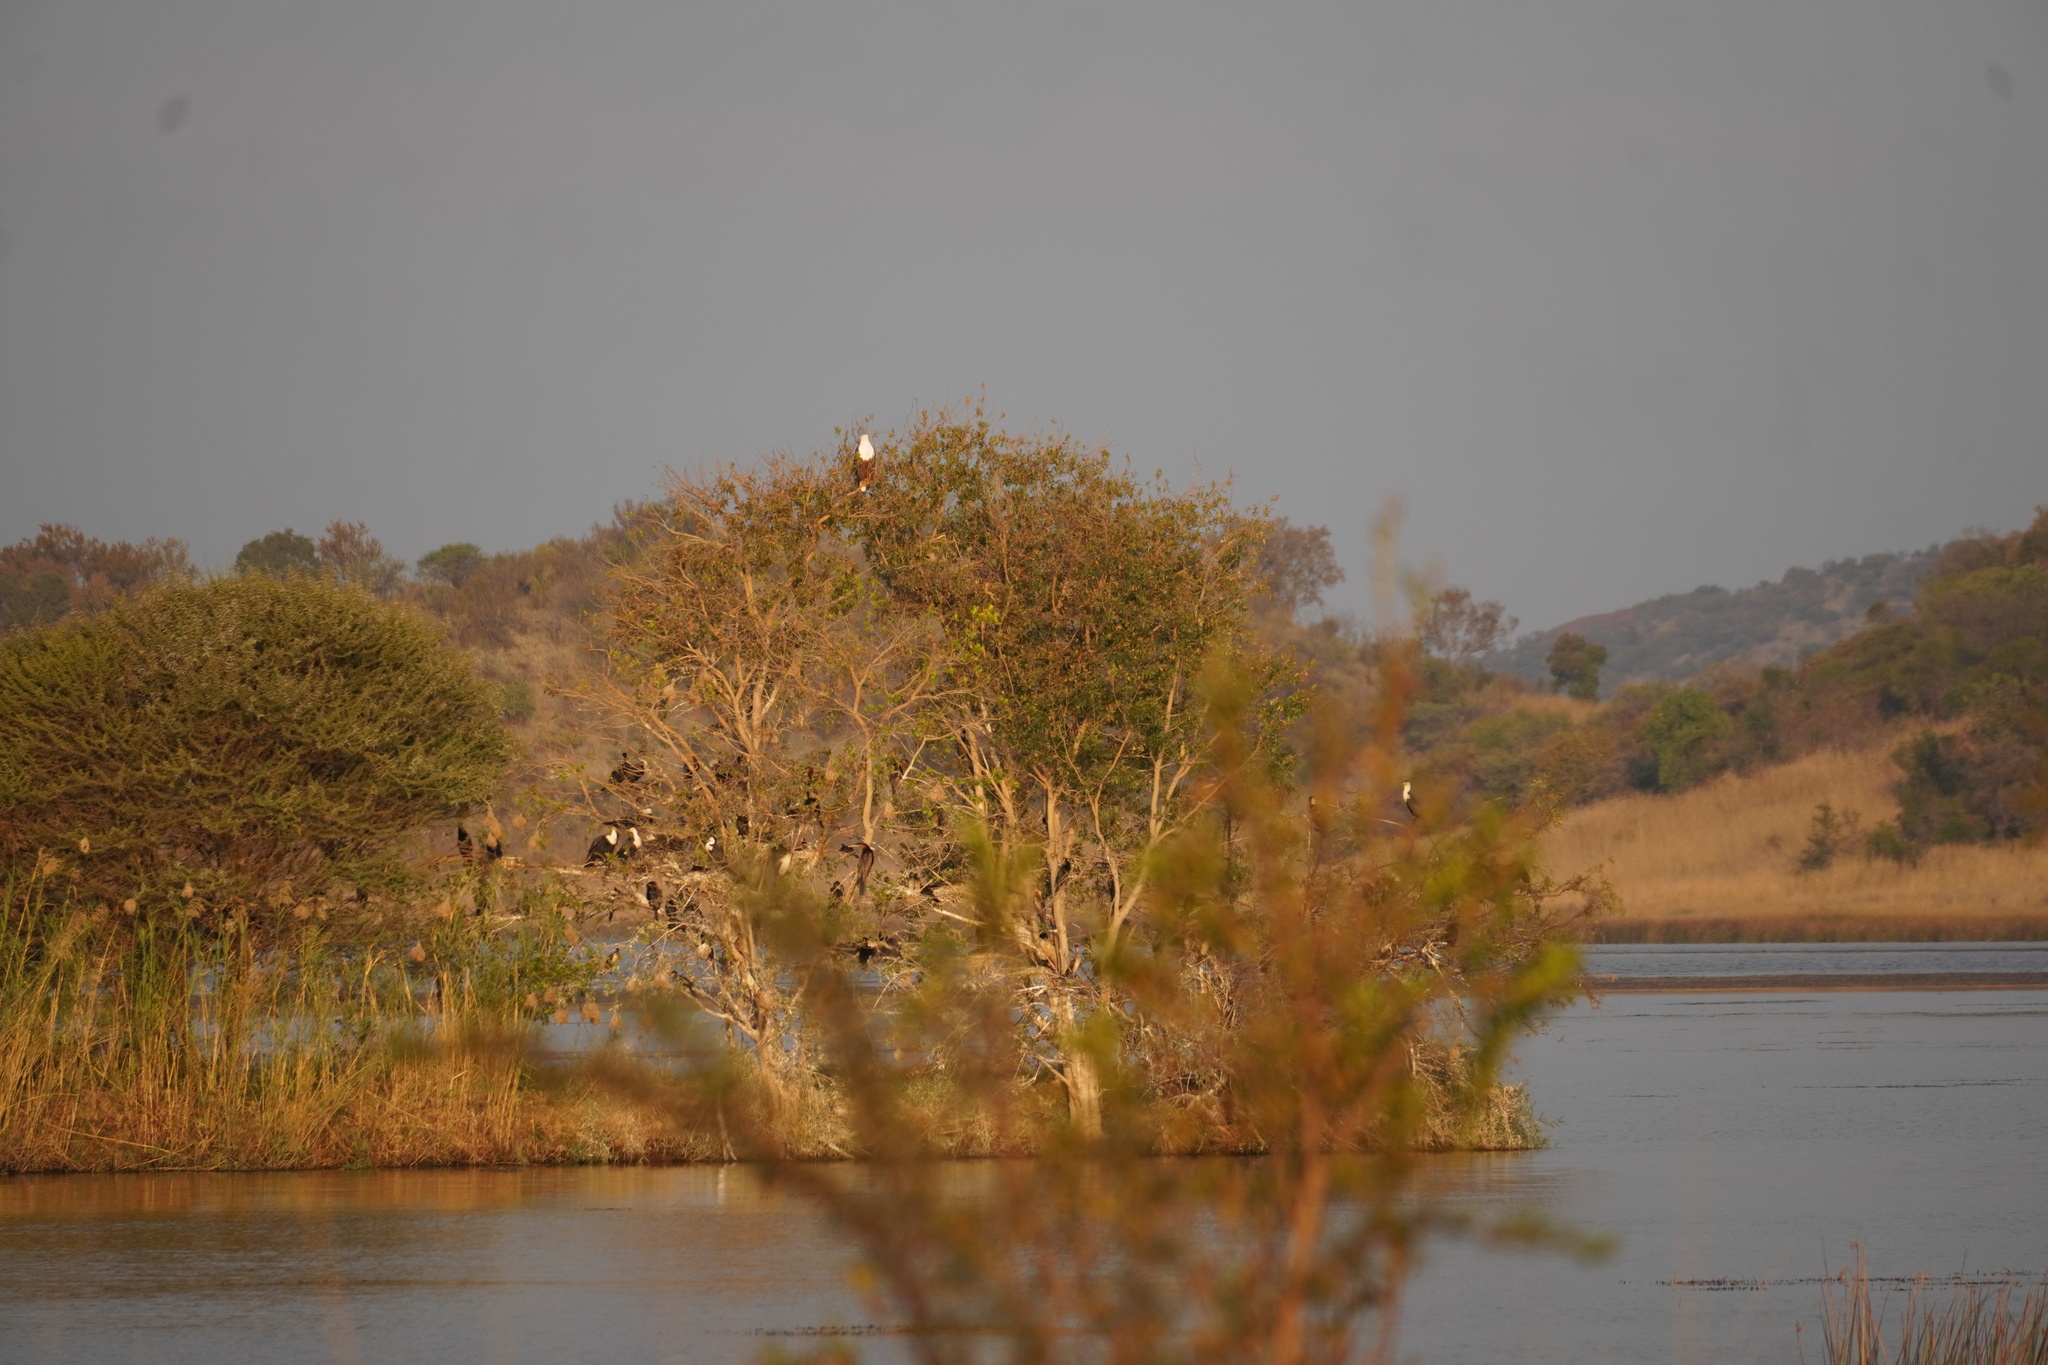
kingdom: Animalia
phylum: Chordata
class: Aves
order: Accipitriformes
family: Accipitridae
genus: Haliaeetus
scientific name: Haliaeetus vocifer
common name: African fish eagle
